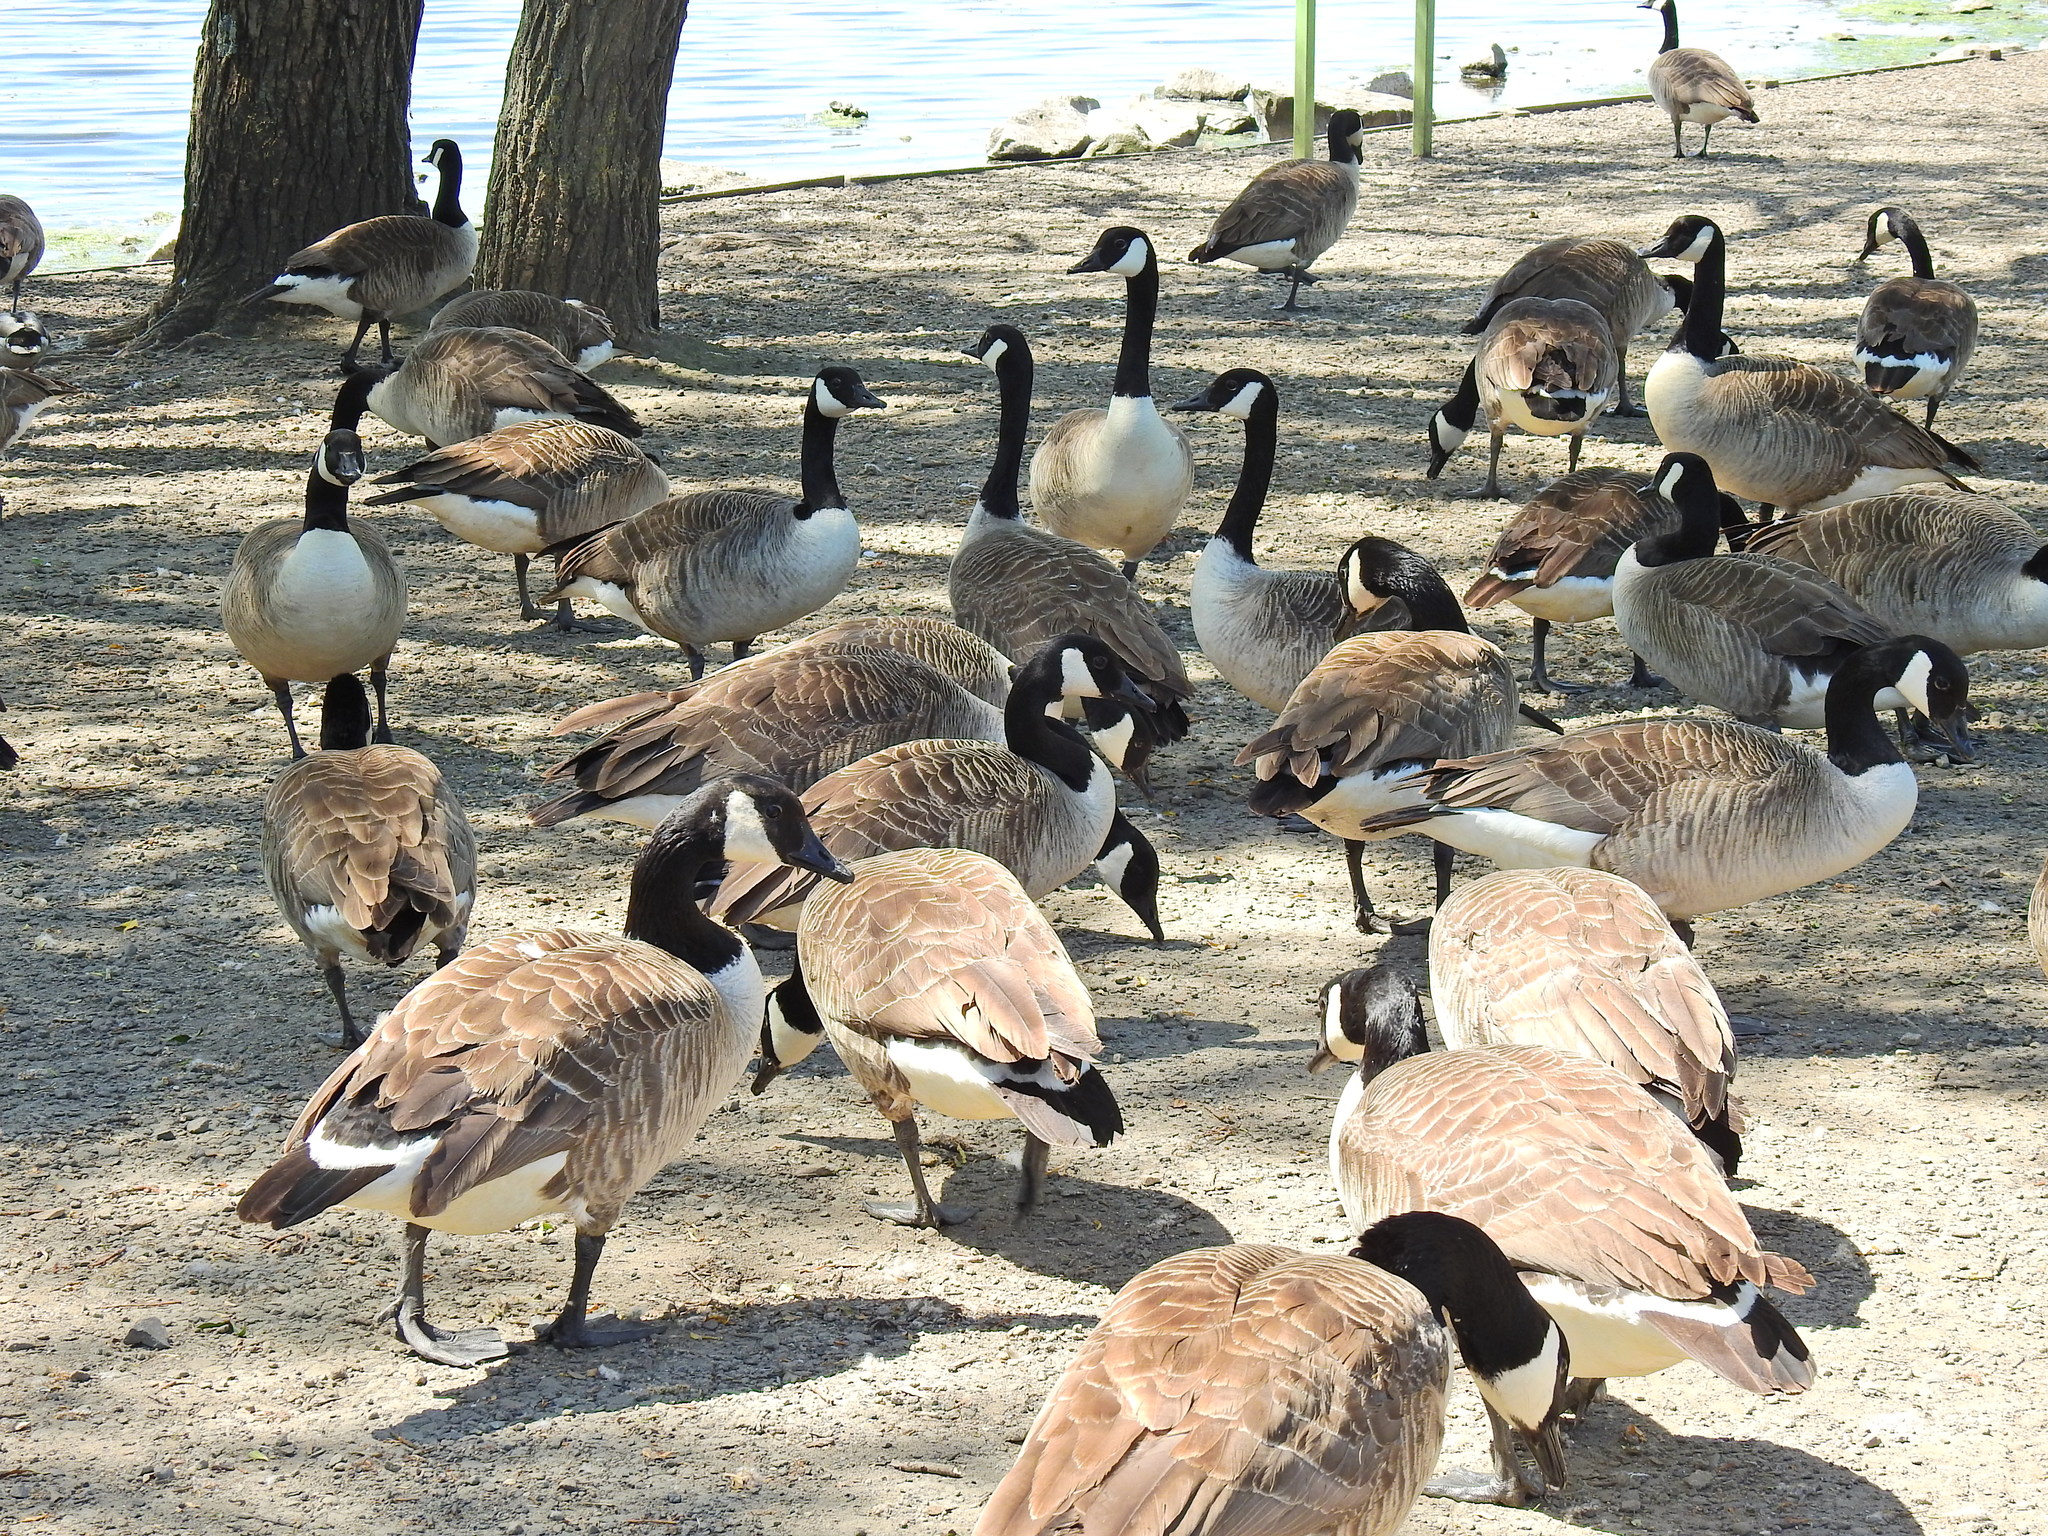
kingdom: Animalia
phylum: Chordata
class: Aves
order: Anseriformes
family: Anatidae
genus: Branta
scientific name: Branta canadensis
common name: Canada goose
